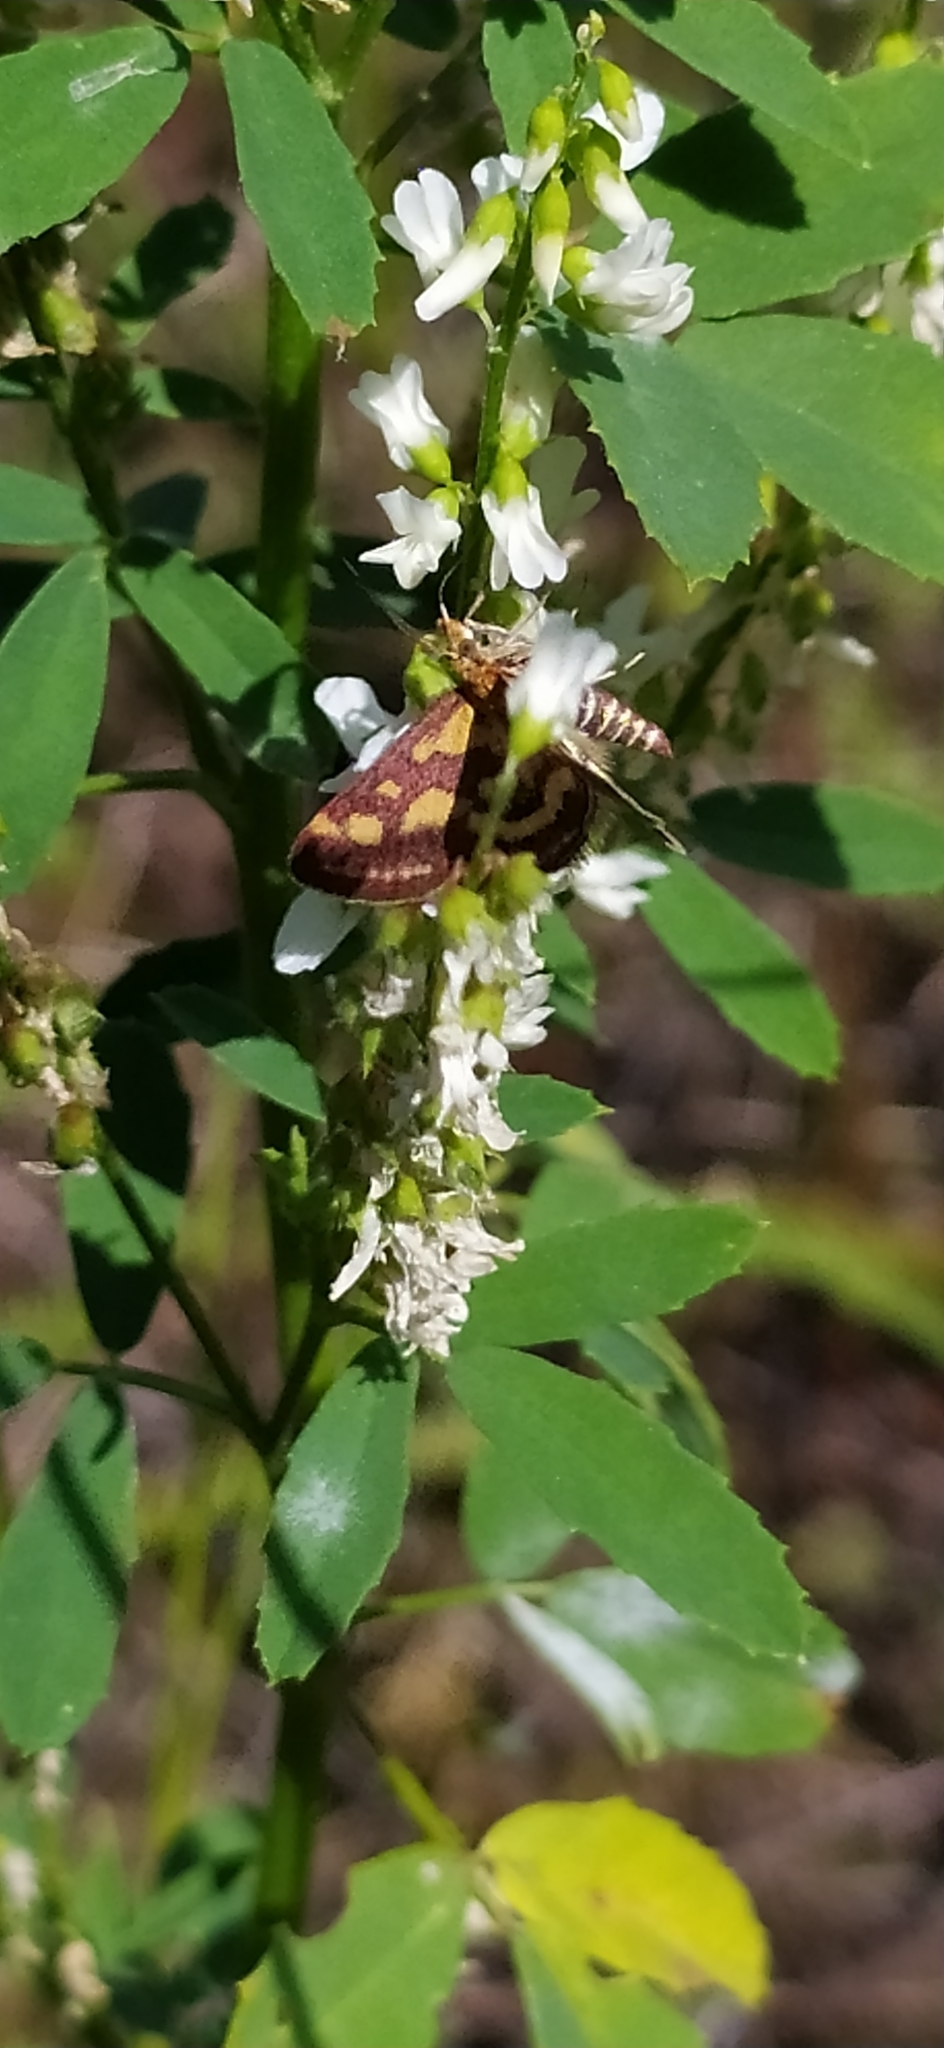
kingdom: Animalia
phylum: Arthropoda
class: Insecta
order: Lepidoptera
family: Crambidae
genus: Pyrausta
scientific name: Pyrausta purpuralis
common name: Common purple & gold
